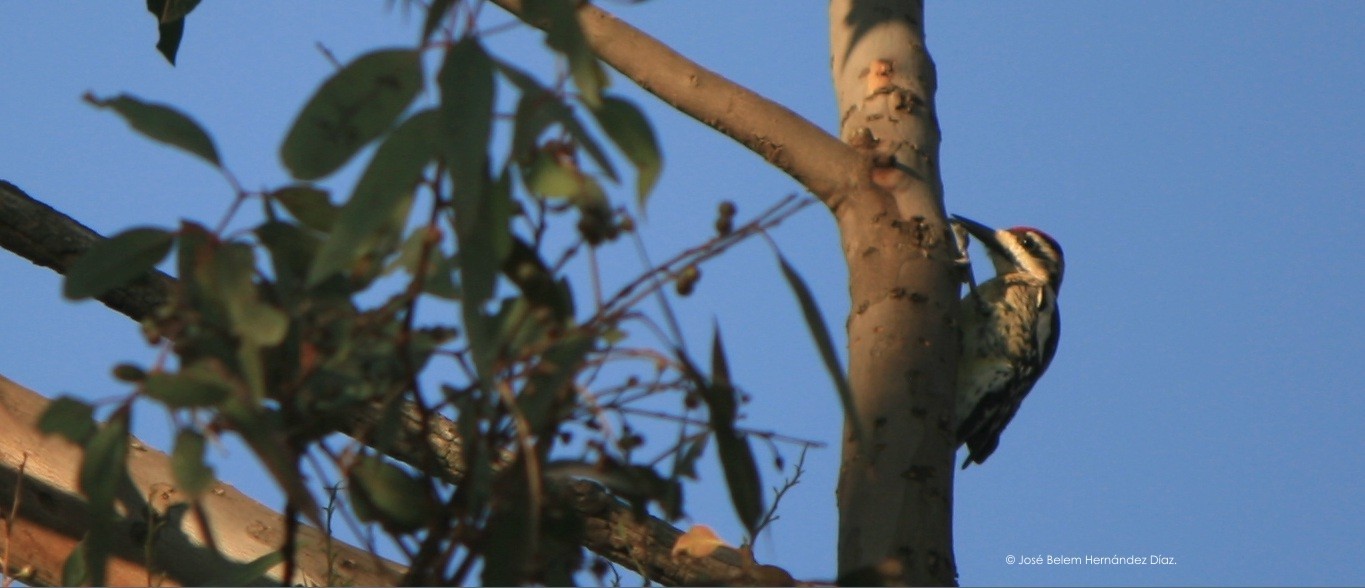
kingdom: Animalia
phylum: Chordata
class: Aves
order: Piciformes
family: Picidae
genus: Sphyrapicus
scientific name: Sphyrapicus varius
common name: Yellow-bellied sapsucker
